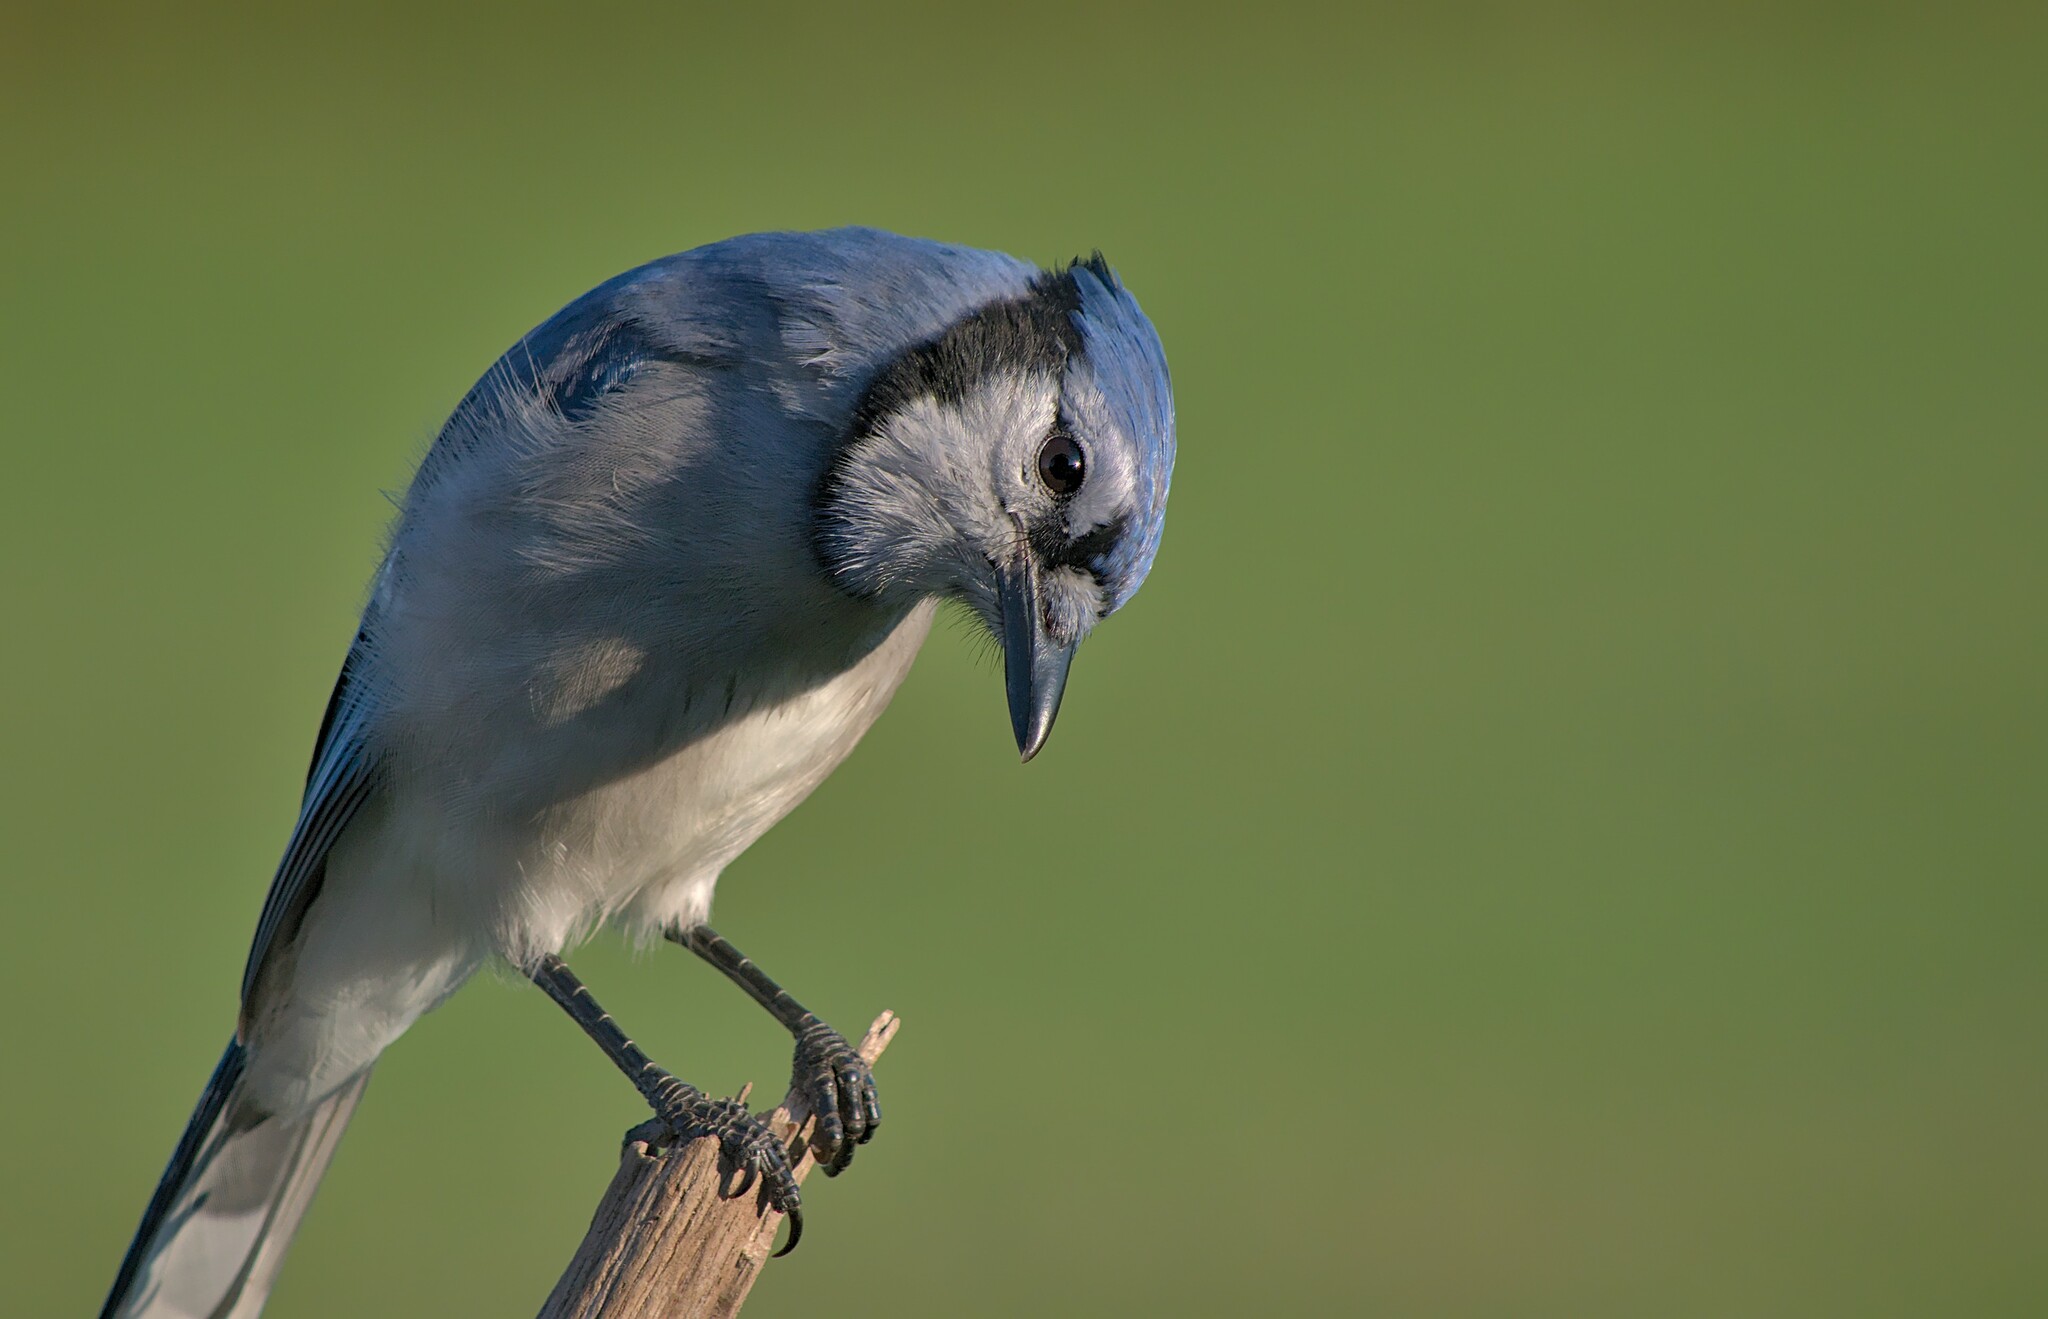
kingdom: Animalia
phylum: Chordata
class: Aves
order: Passeriformes
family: Corvidae
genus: Cyanocitta
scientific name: Cyanocitta cristata
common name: Blue jay
